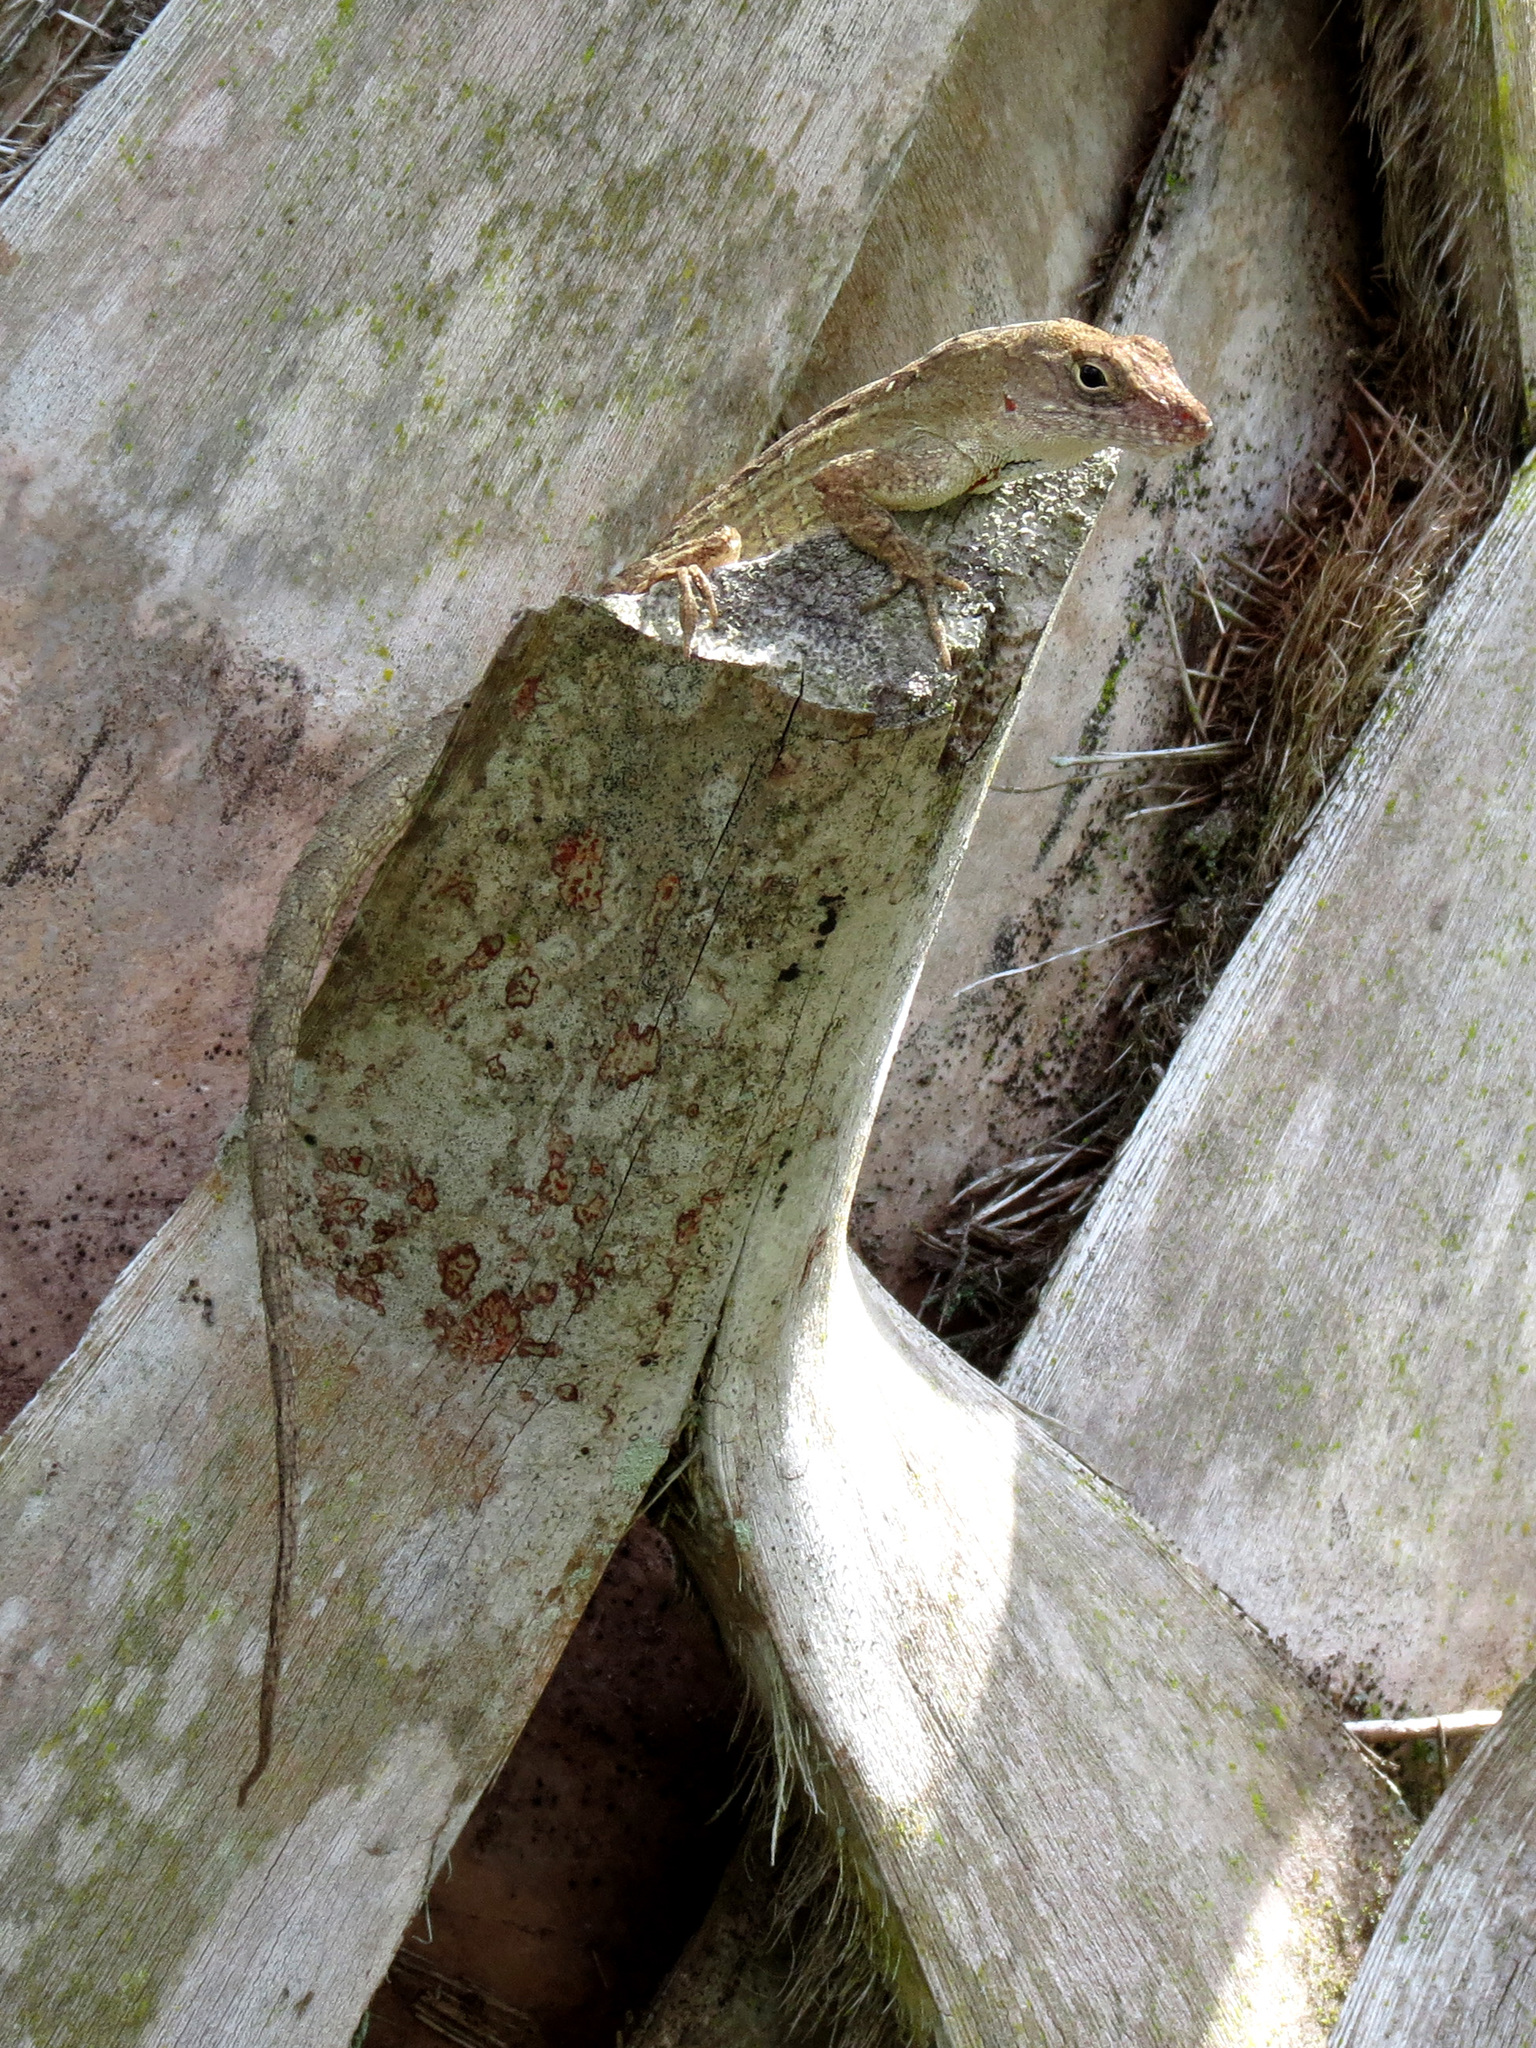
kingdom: Animalia
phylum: Chordata
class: Squamata
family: Dactyloidae
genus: Anolis
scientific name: Anolis sagrei
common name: Brown anole
